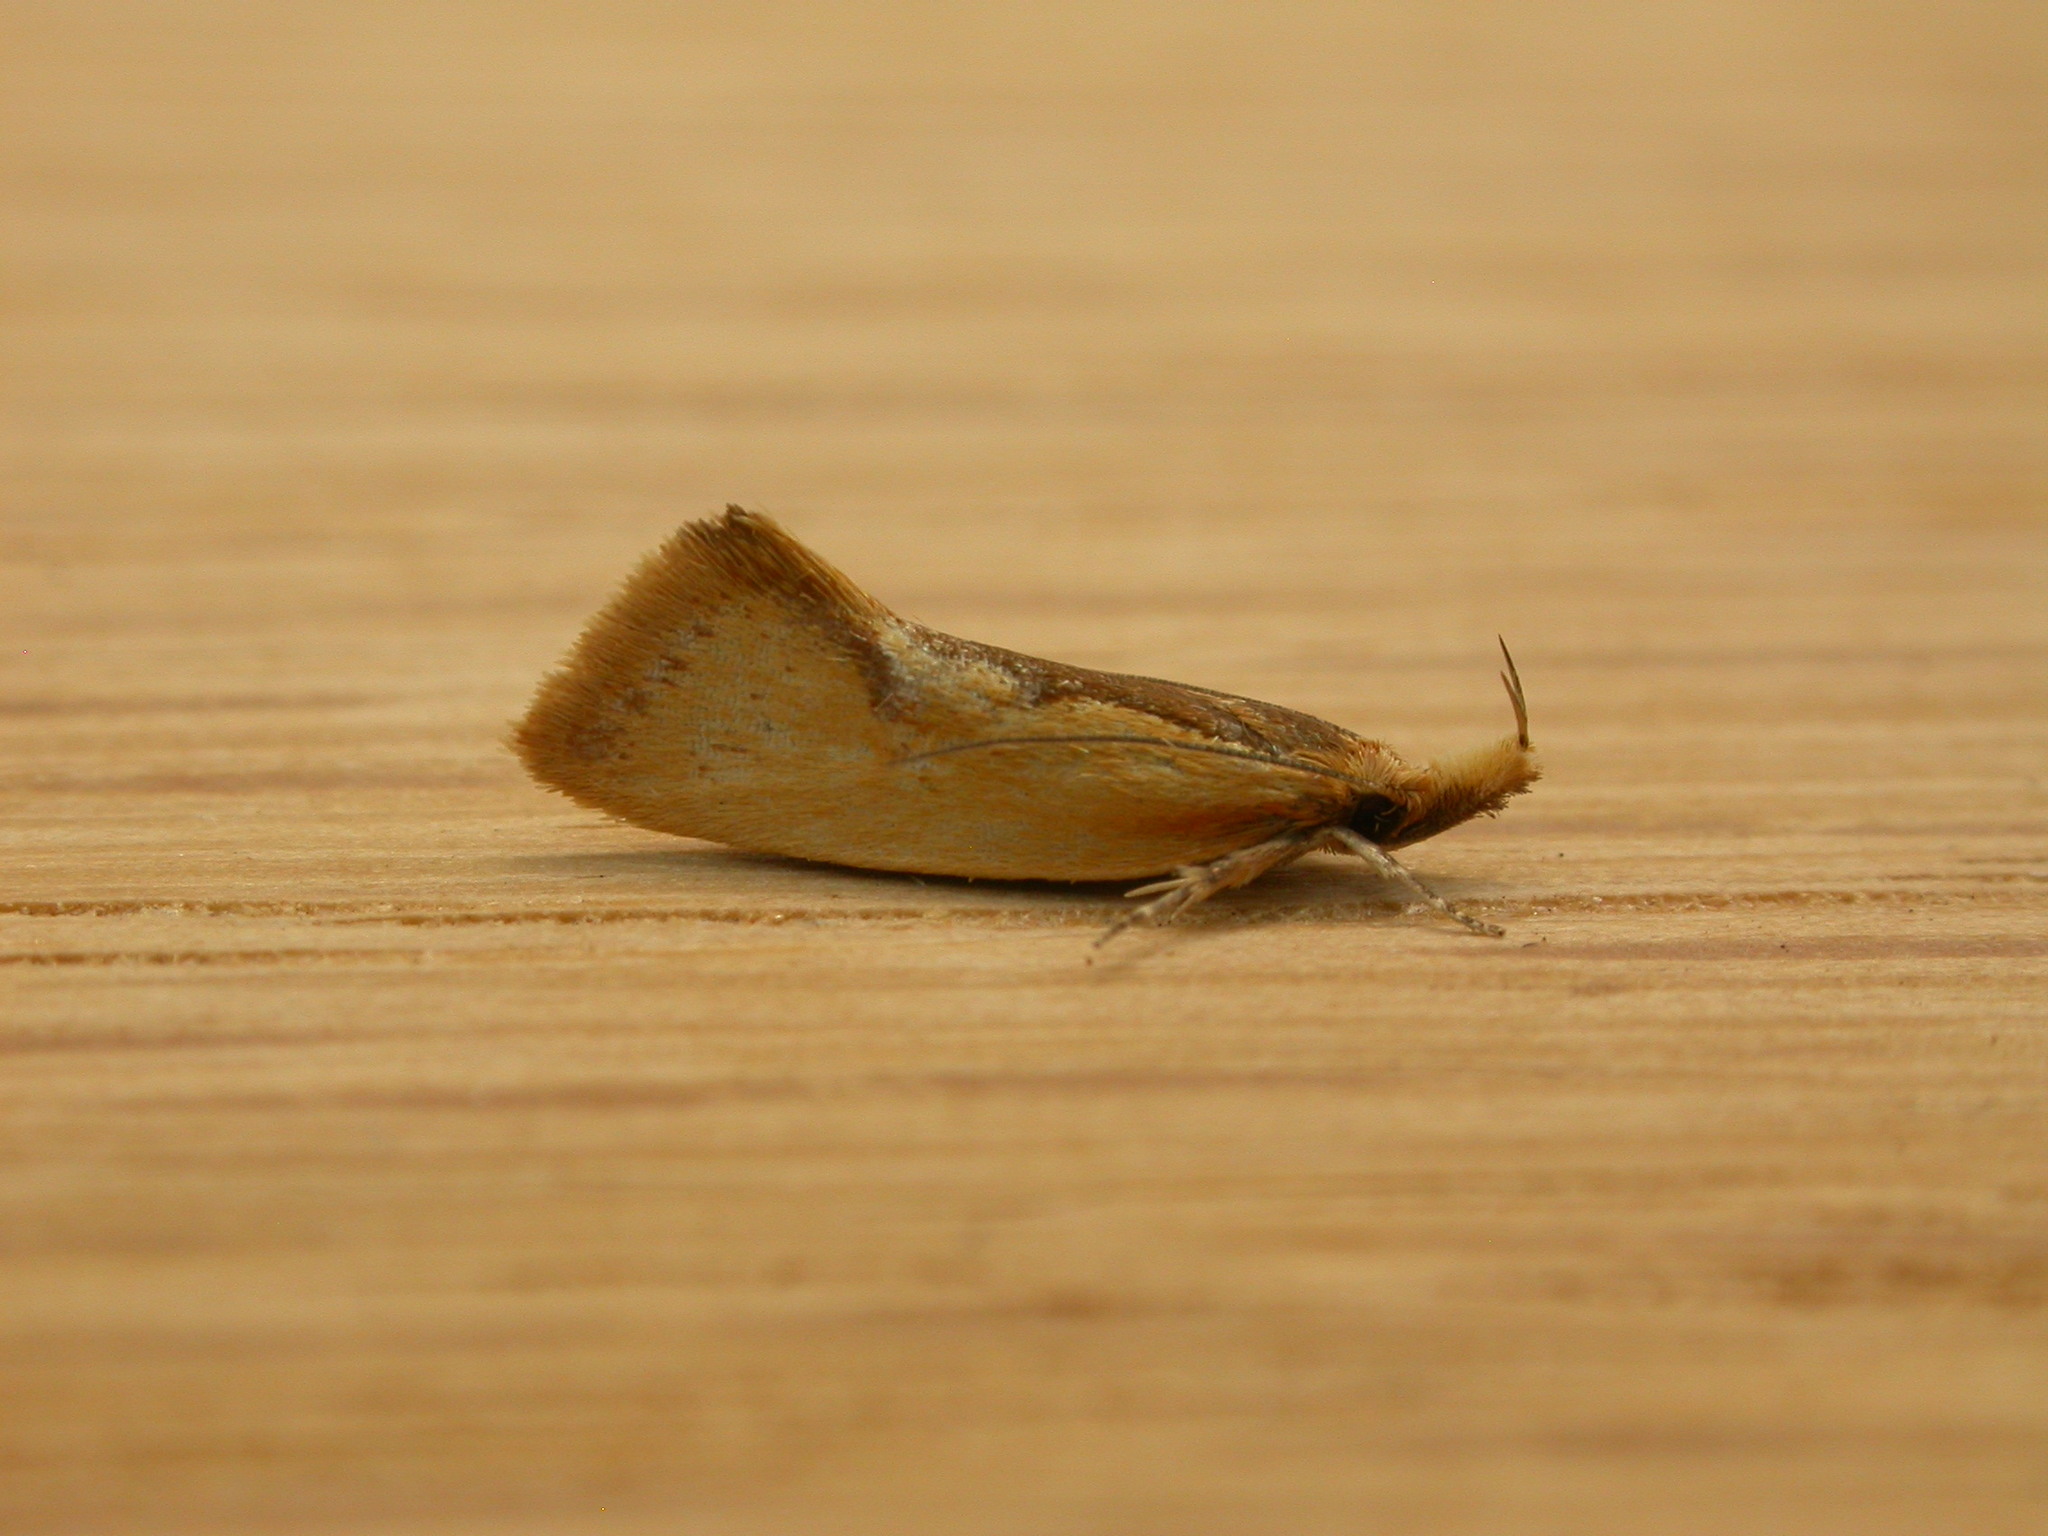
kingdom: Animalia
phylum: Arthropoda
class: Insecta
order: Lepidoptera
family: Oecophoridae
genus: Thema
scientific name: Thema psammoxantha
